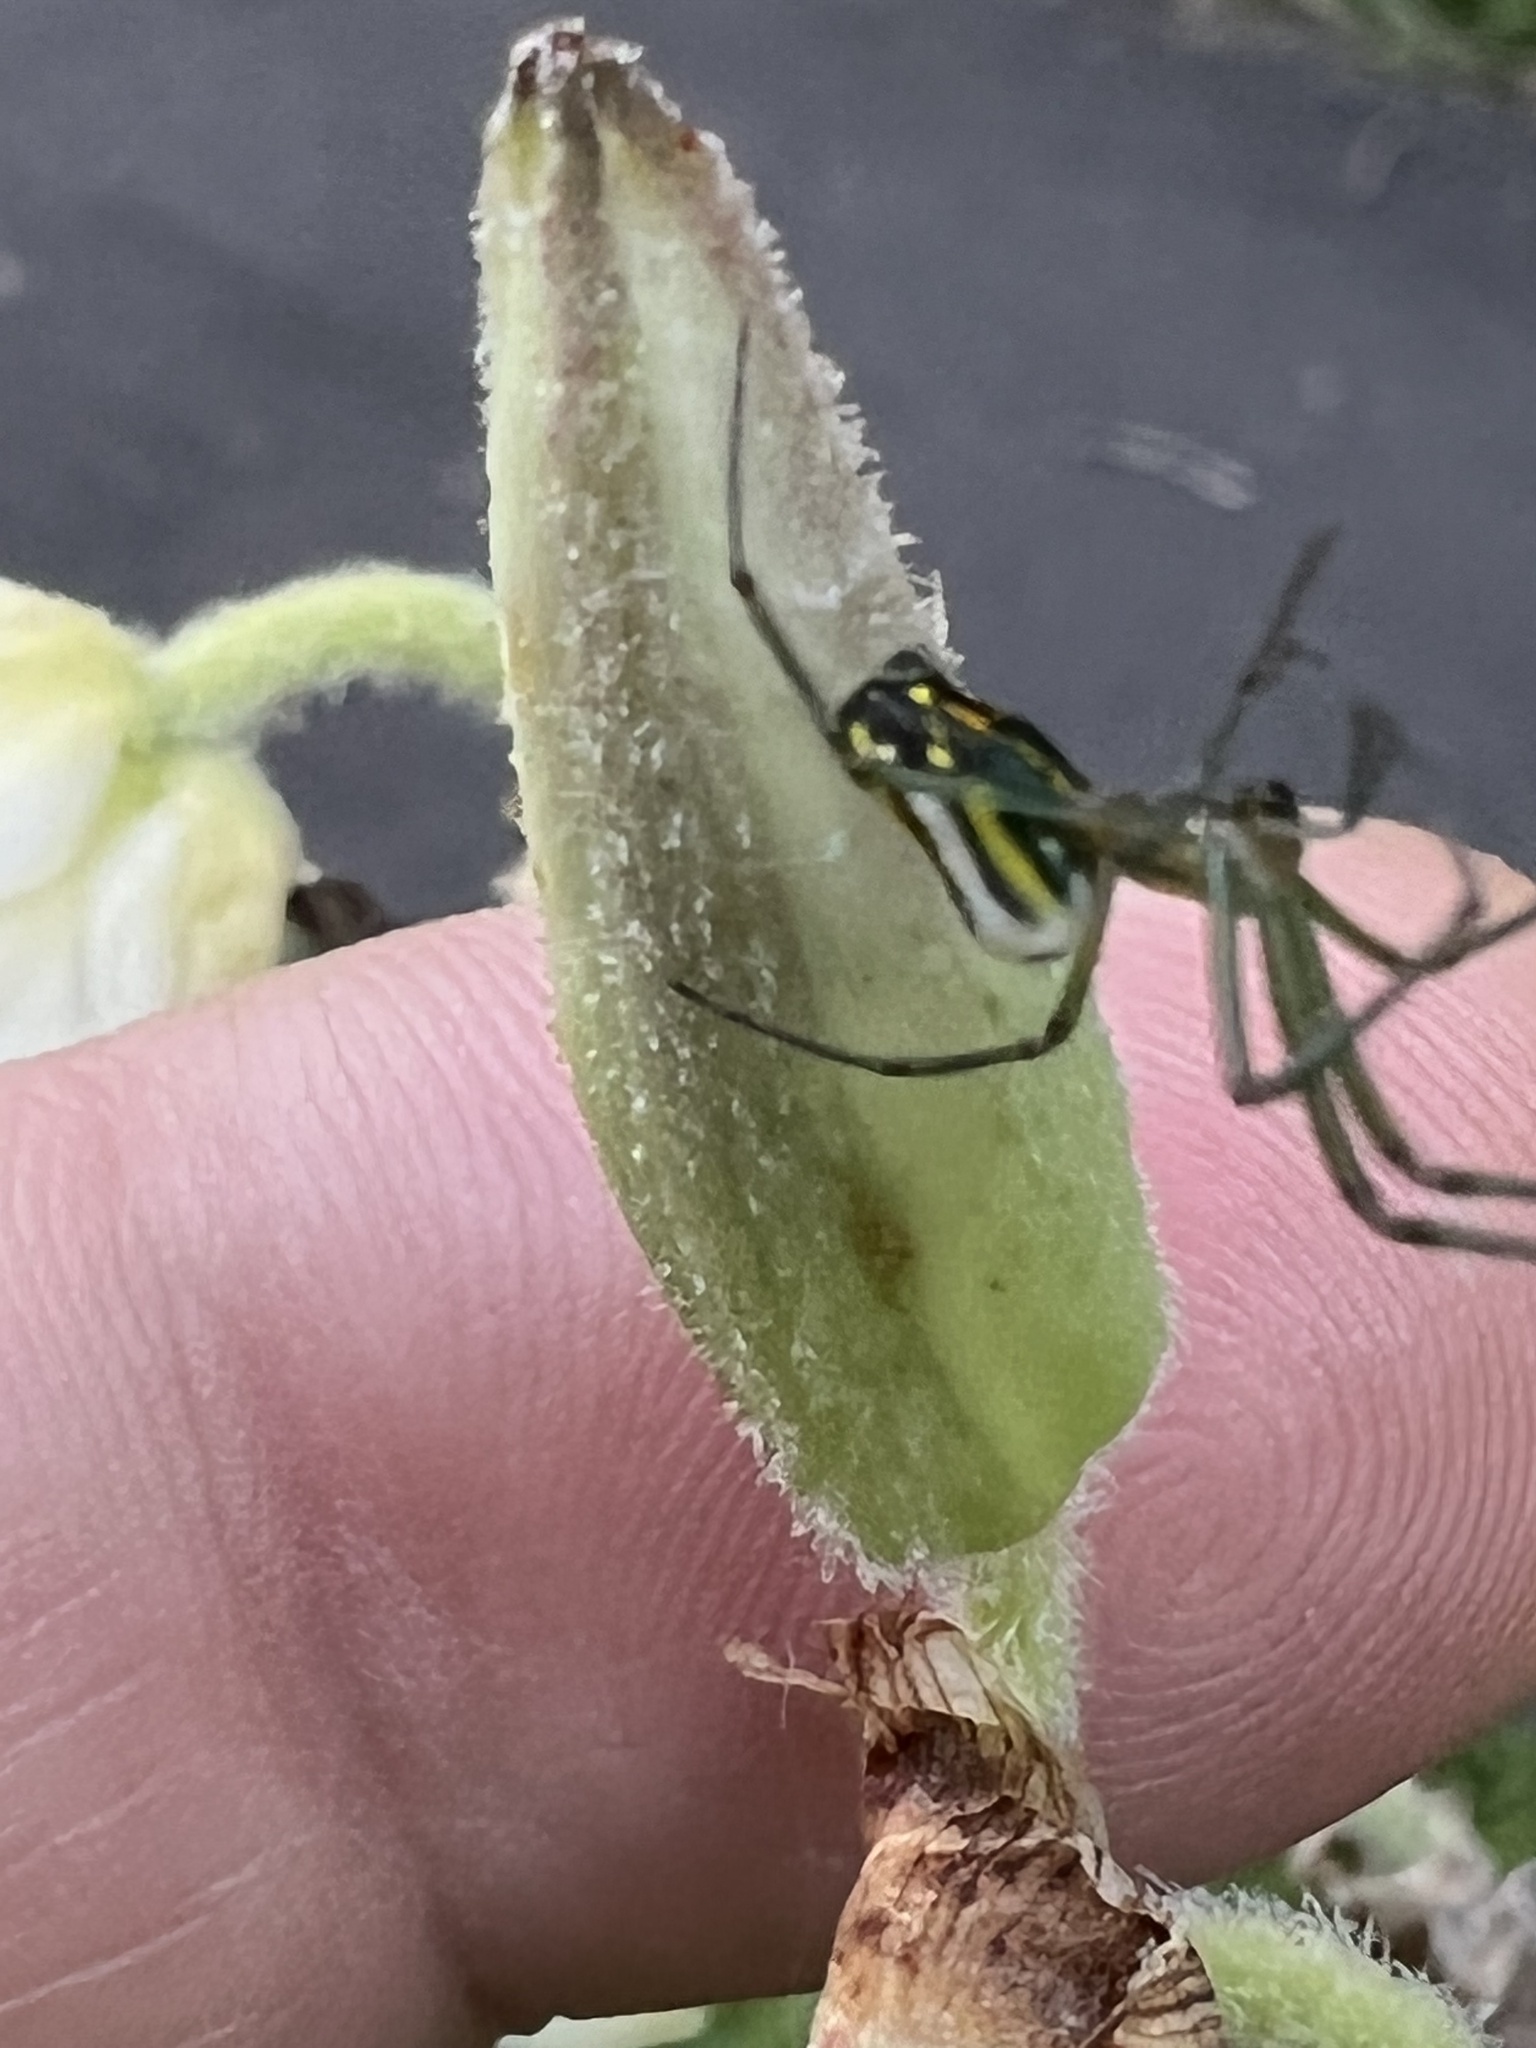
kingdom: Animalia
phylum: Arthropoda
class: Arachnida
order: Araneae
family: Tetragnathidae
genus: Leucauge
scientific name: Leucauge venusta
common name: Longjawed orb weavers
